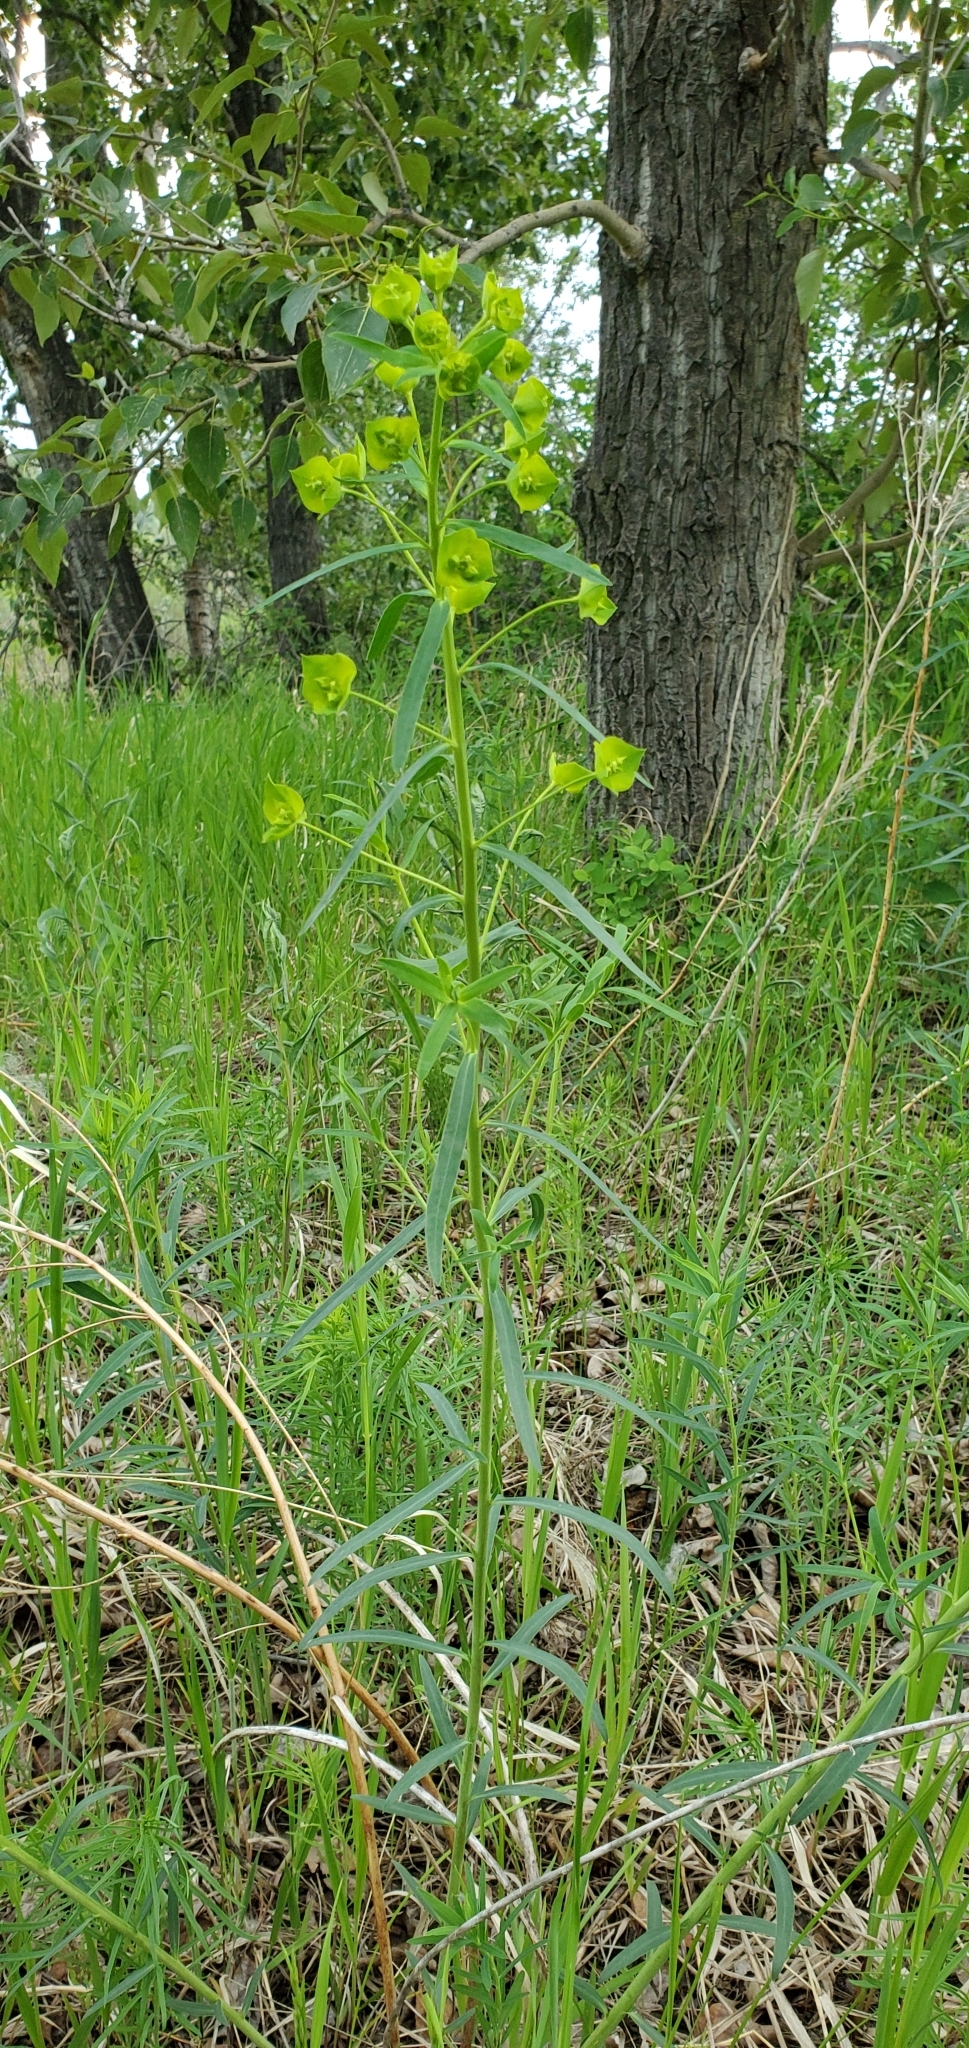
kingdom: Plantae
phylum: Tracheophyta
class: Magnoliopsida
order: Malpighiales
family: Euphorbiaceae
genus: Euphorbia
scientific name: Euphorbia virgata
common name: Leafy spurge
